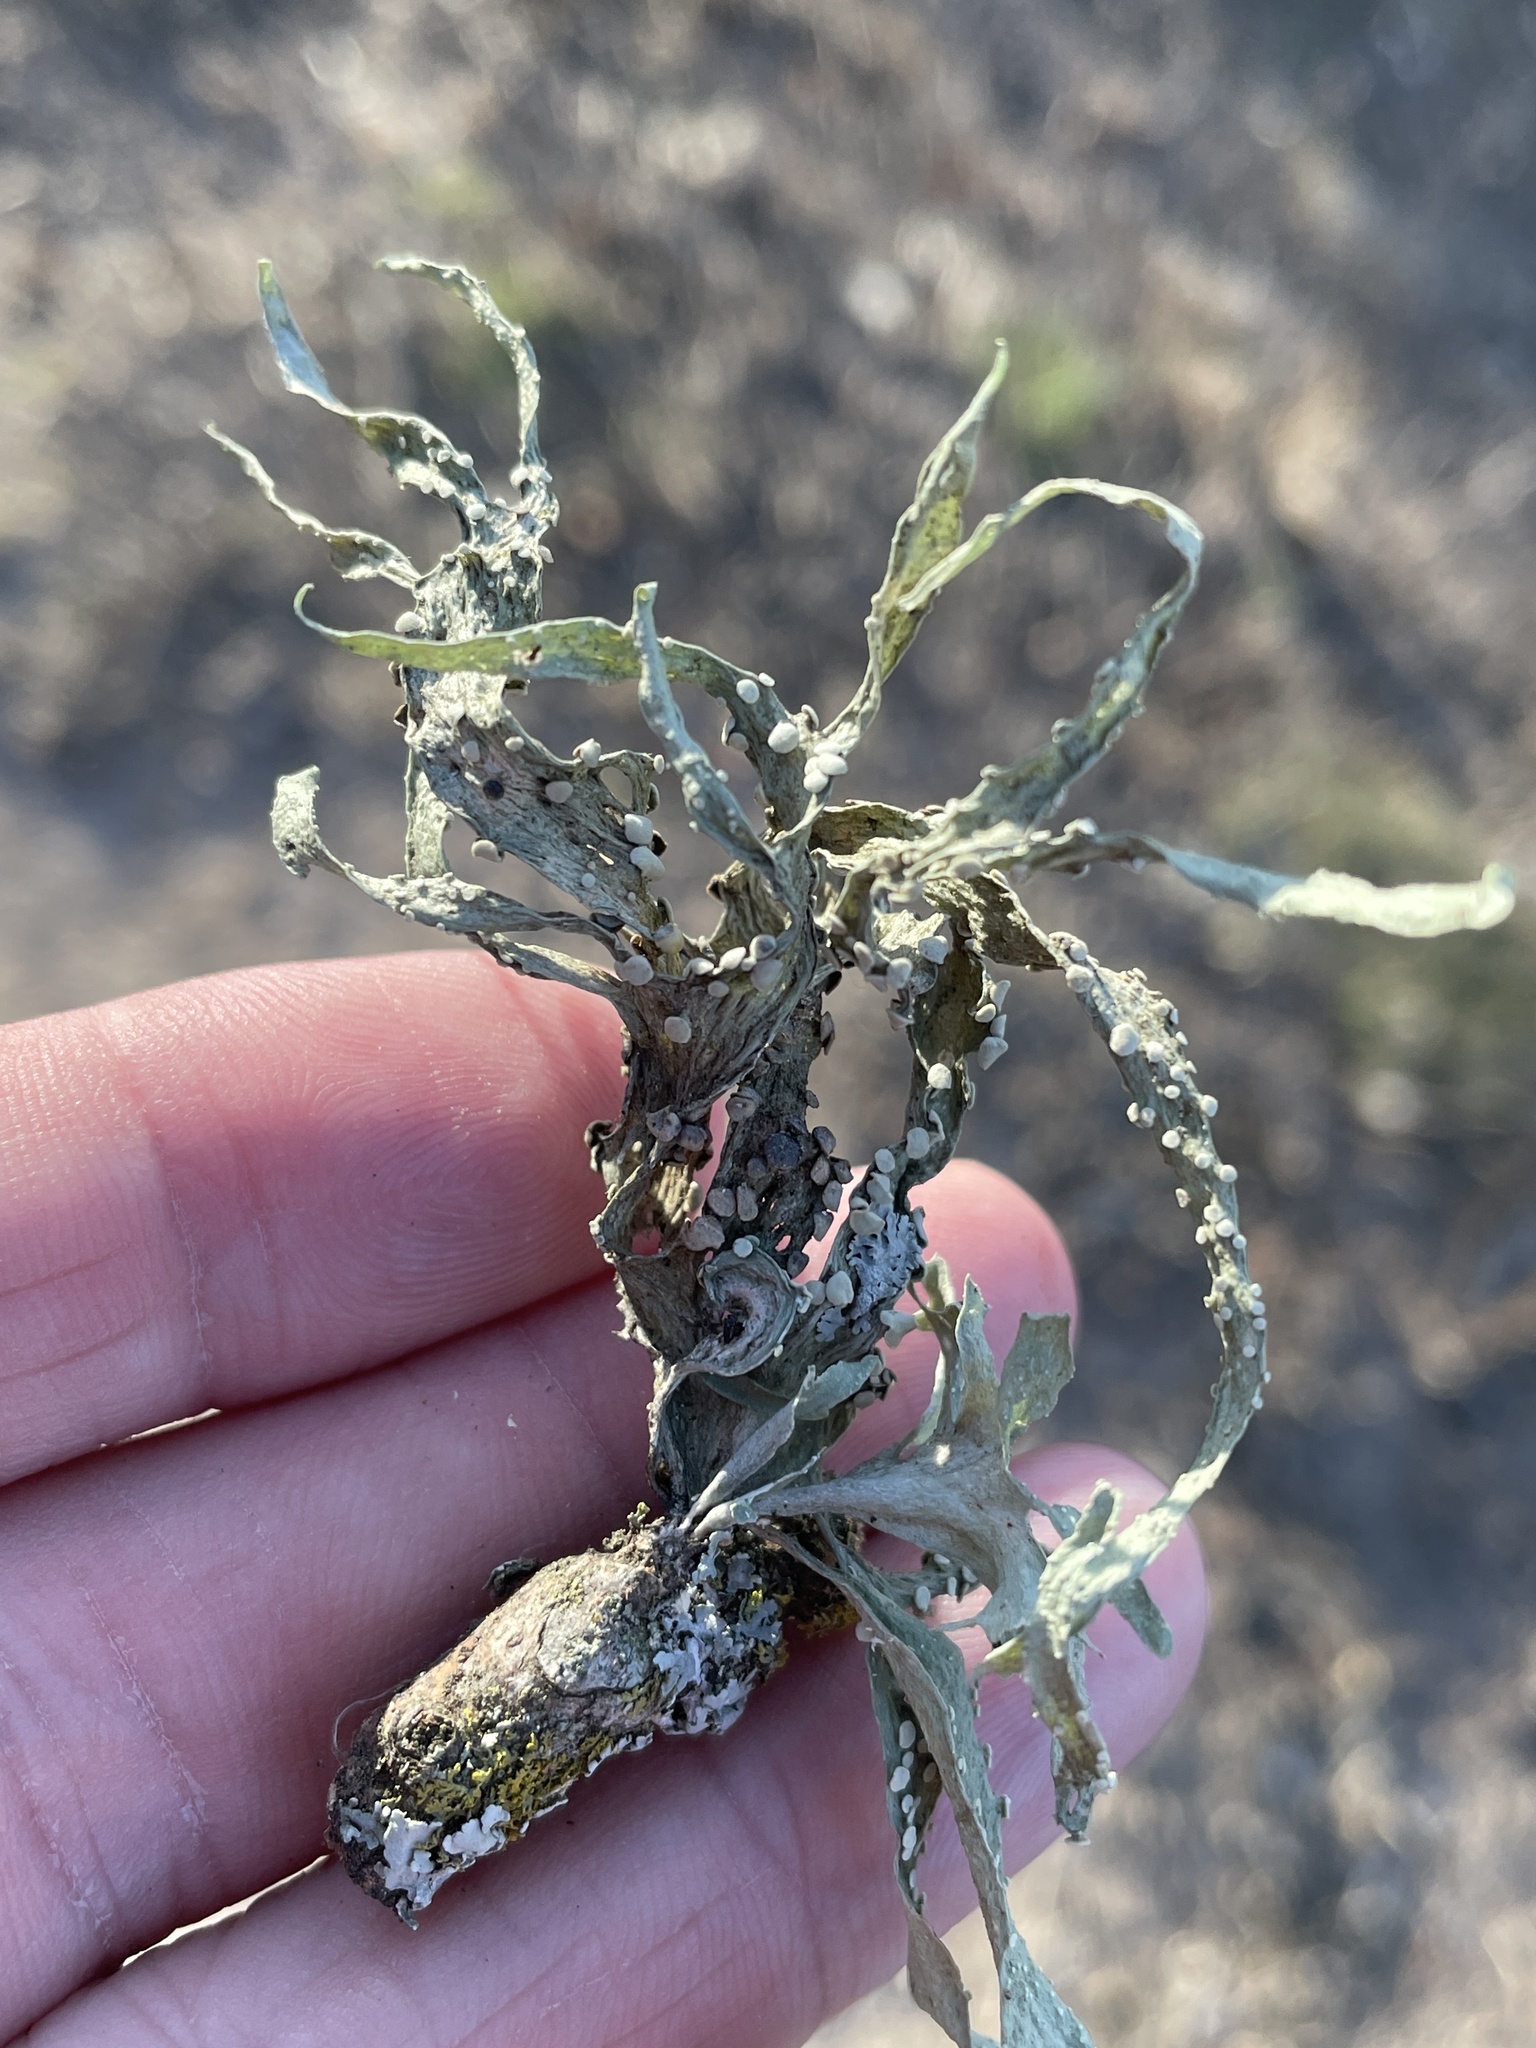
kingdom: Fungi
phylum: Ascomycota
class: Lecanoromycetes
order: Lecanorales
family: Ramalinaceae
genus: Ramalina
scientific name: Ramalina celastri
